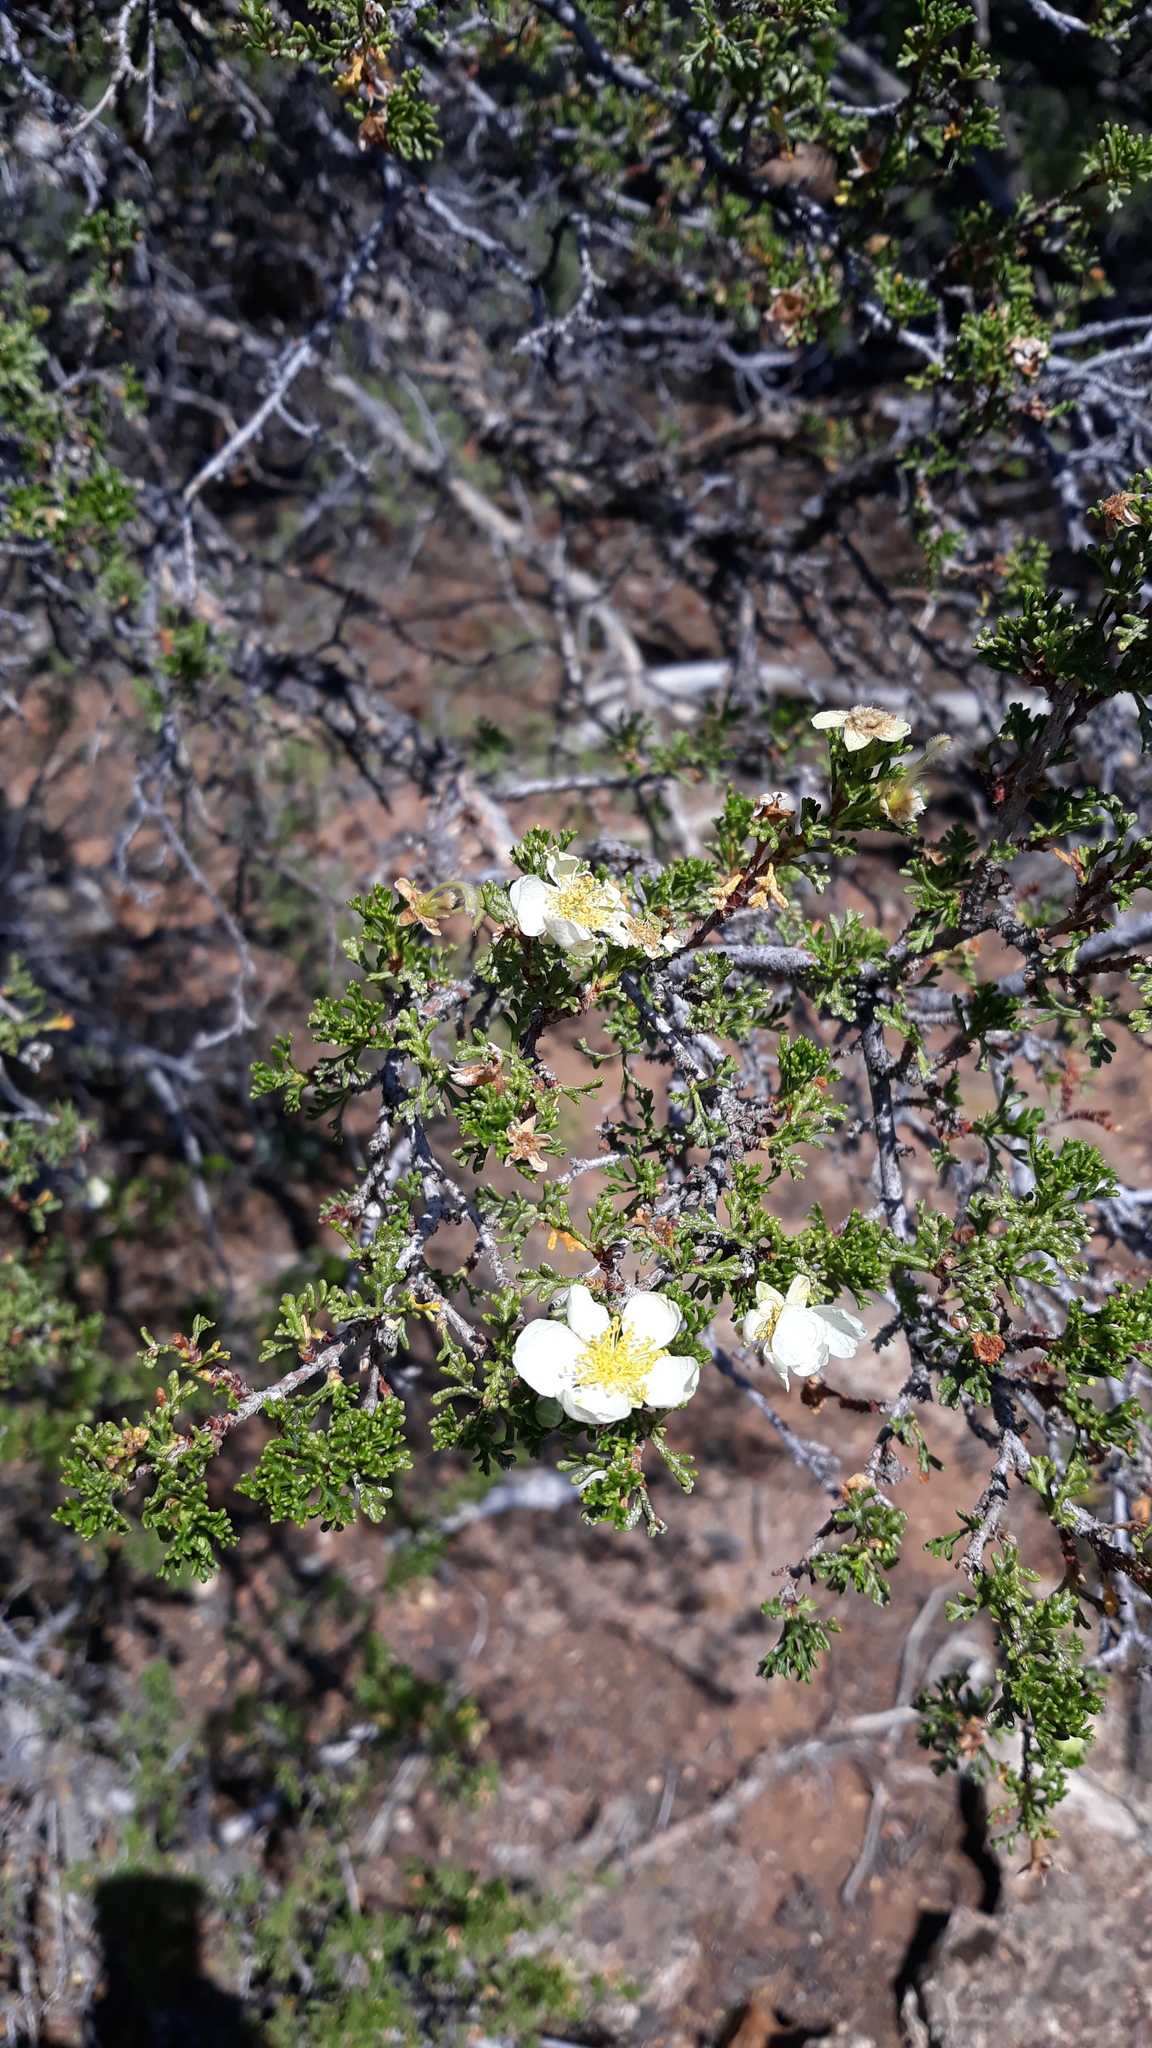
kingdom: Plantae
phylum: Tracheophyta
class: Magnoliopsida
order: Rosales
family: Rosaceae
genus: Purshia
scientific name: Purshia stansburiana
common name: Stansbury's cliffrose
